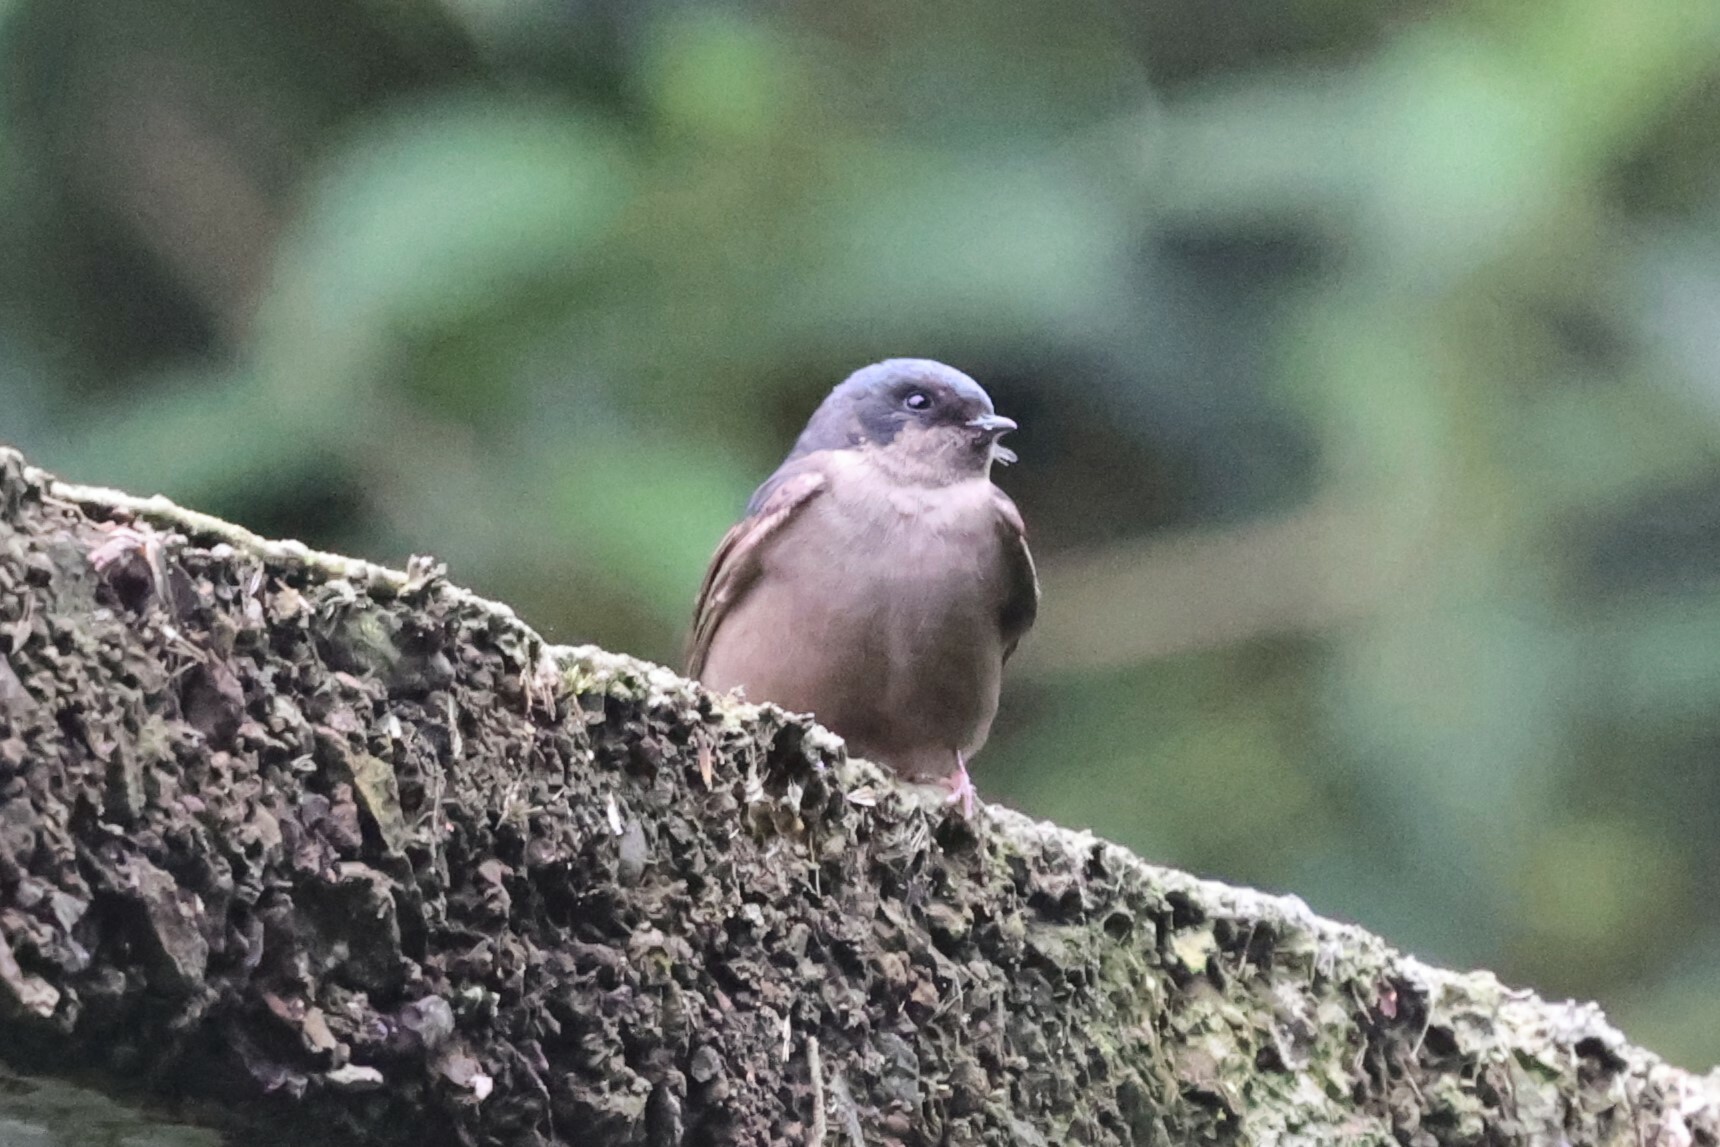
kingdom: Animalia
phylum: Chordata
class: Aves
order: Passeriformes
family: Hirundinidae
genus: Notiochelidon
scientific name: Notiochelidon murina
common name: Brown-bellied swallow
